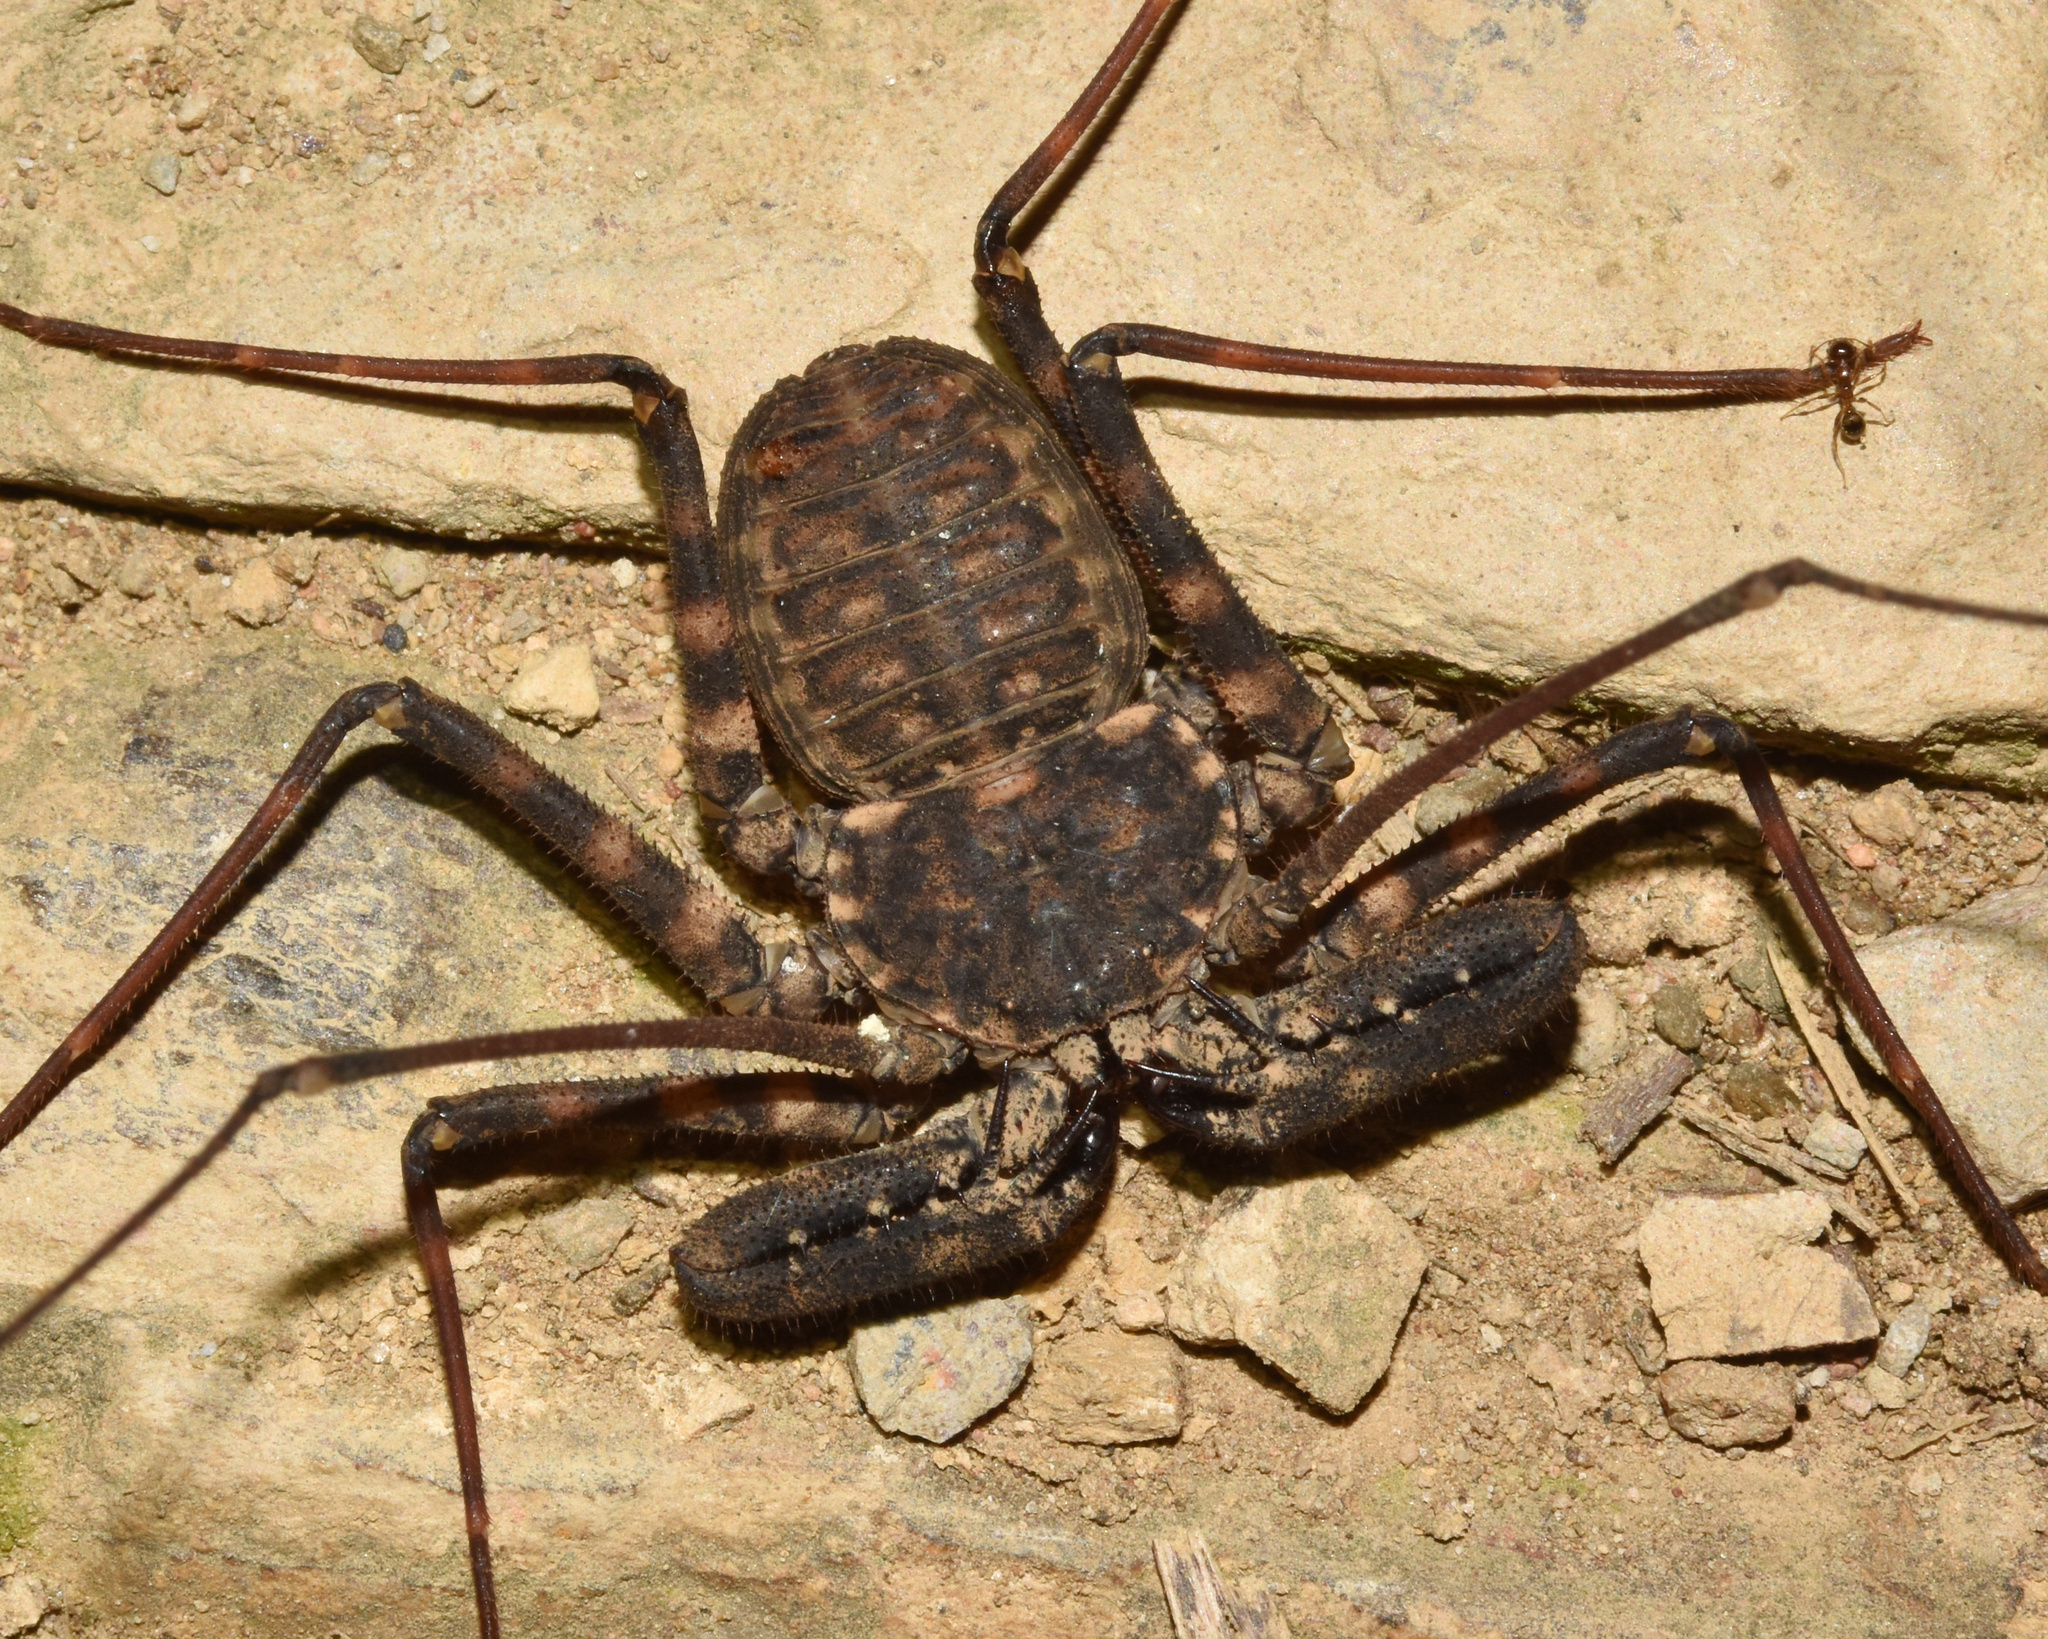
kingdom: Animalia
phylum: Arthropoda
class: Arachnida
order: Amblypygi
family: Phrynichidae
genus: Damon
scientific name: Damon annulatipes
